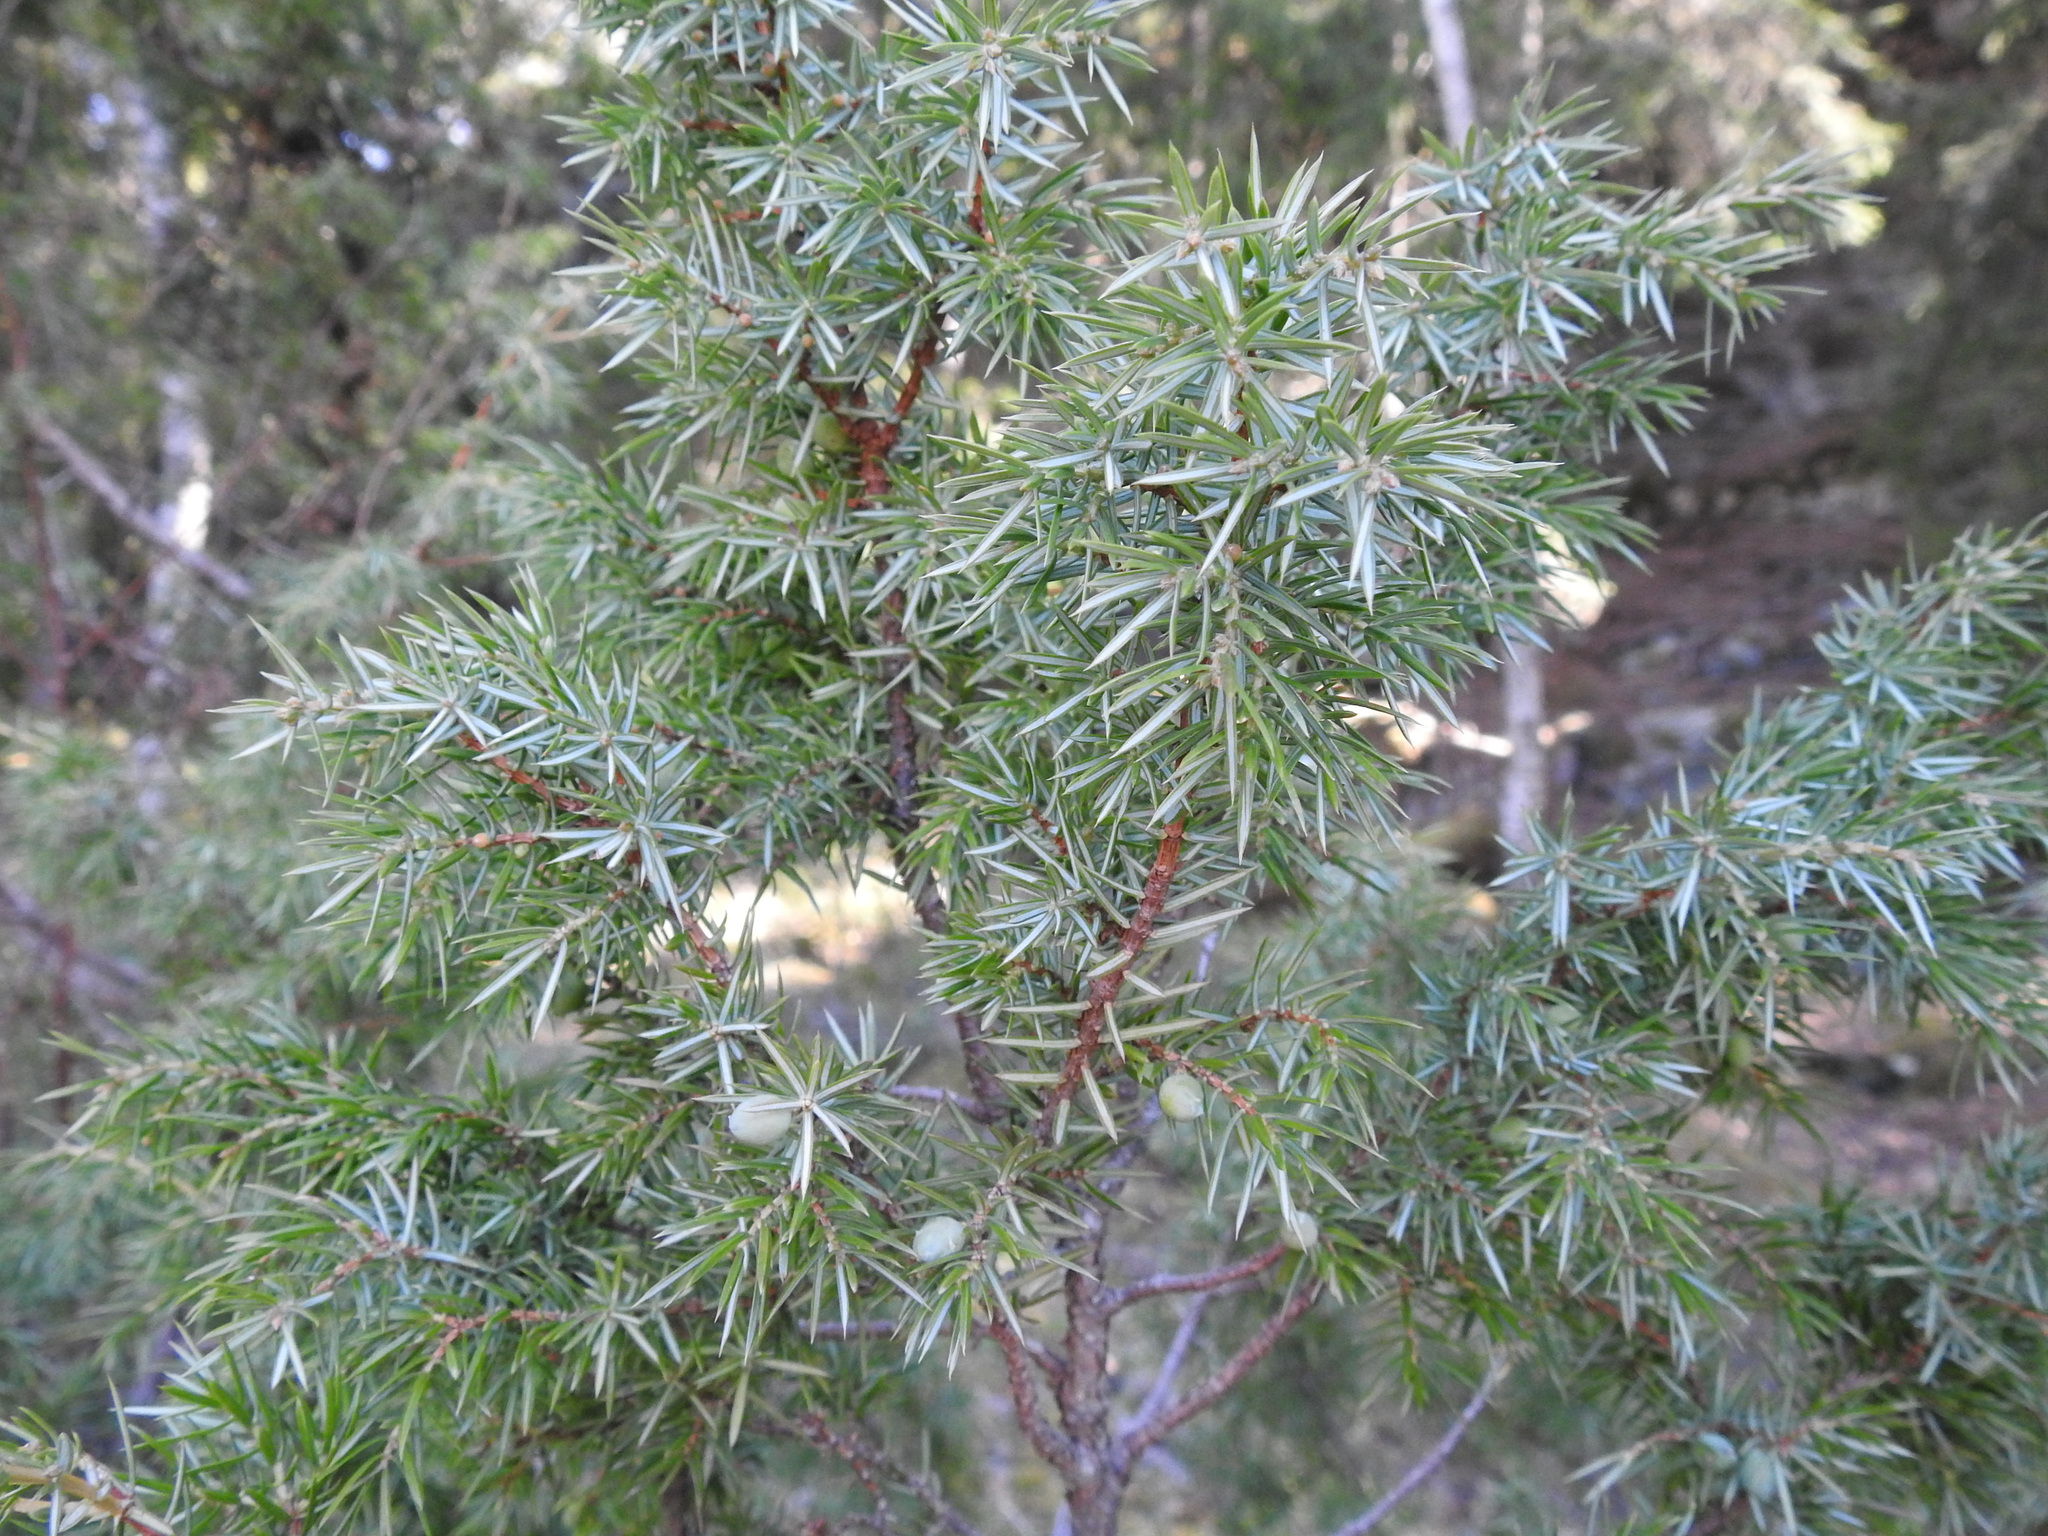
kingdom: Plantae
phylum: Tracheophyta
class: Pinopsida
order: Pinales
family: Cupressaceae
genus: Juniperus
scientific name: Juniperus communis
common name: Common juniper
